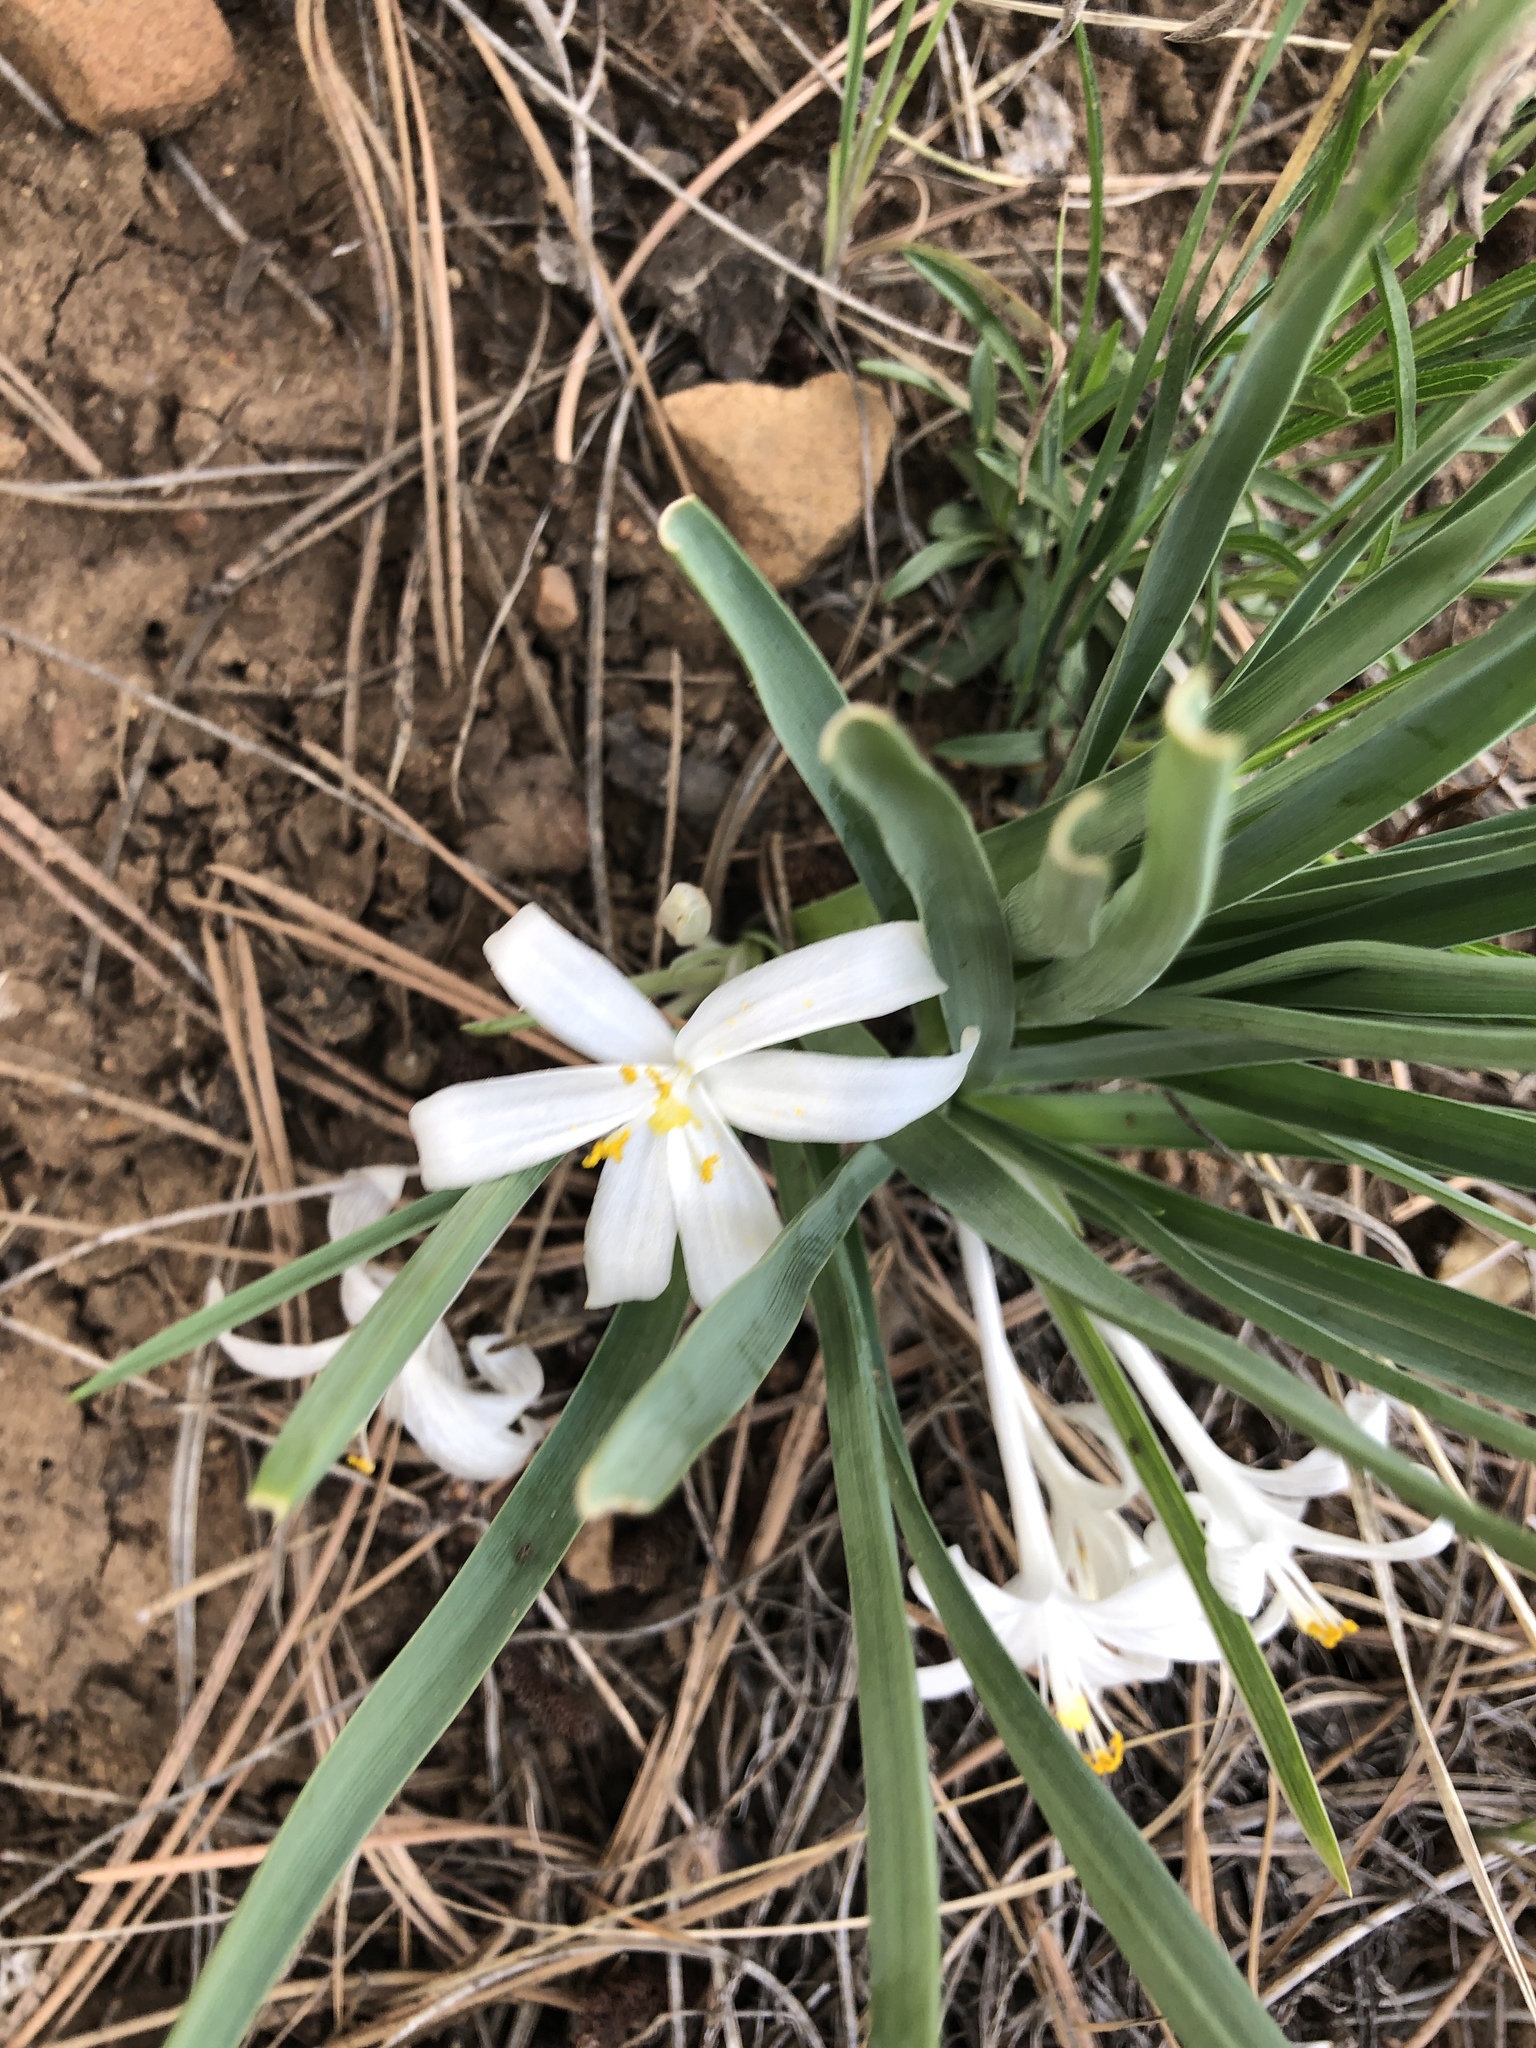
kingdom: Plantae
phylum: Tracheophyta
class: Liliopsida
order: Asparagales
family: Asparagaceae
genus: Leucocrinum
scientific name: Leucocrinum montanum
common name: Mountain-lily
